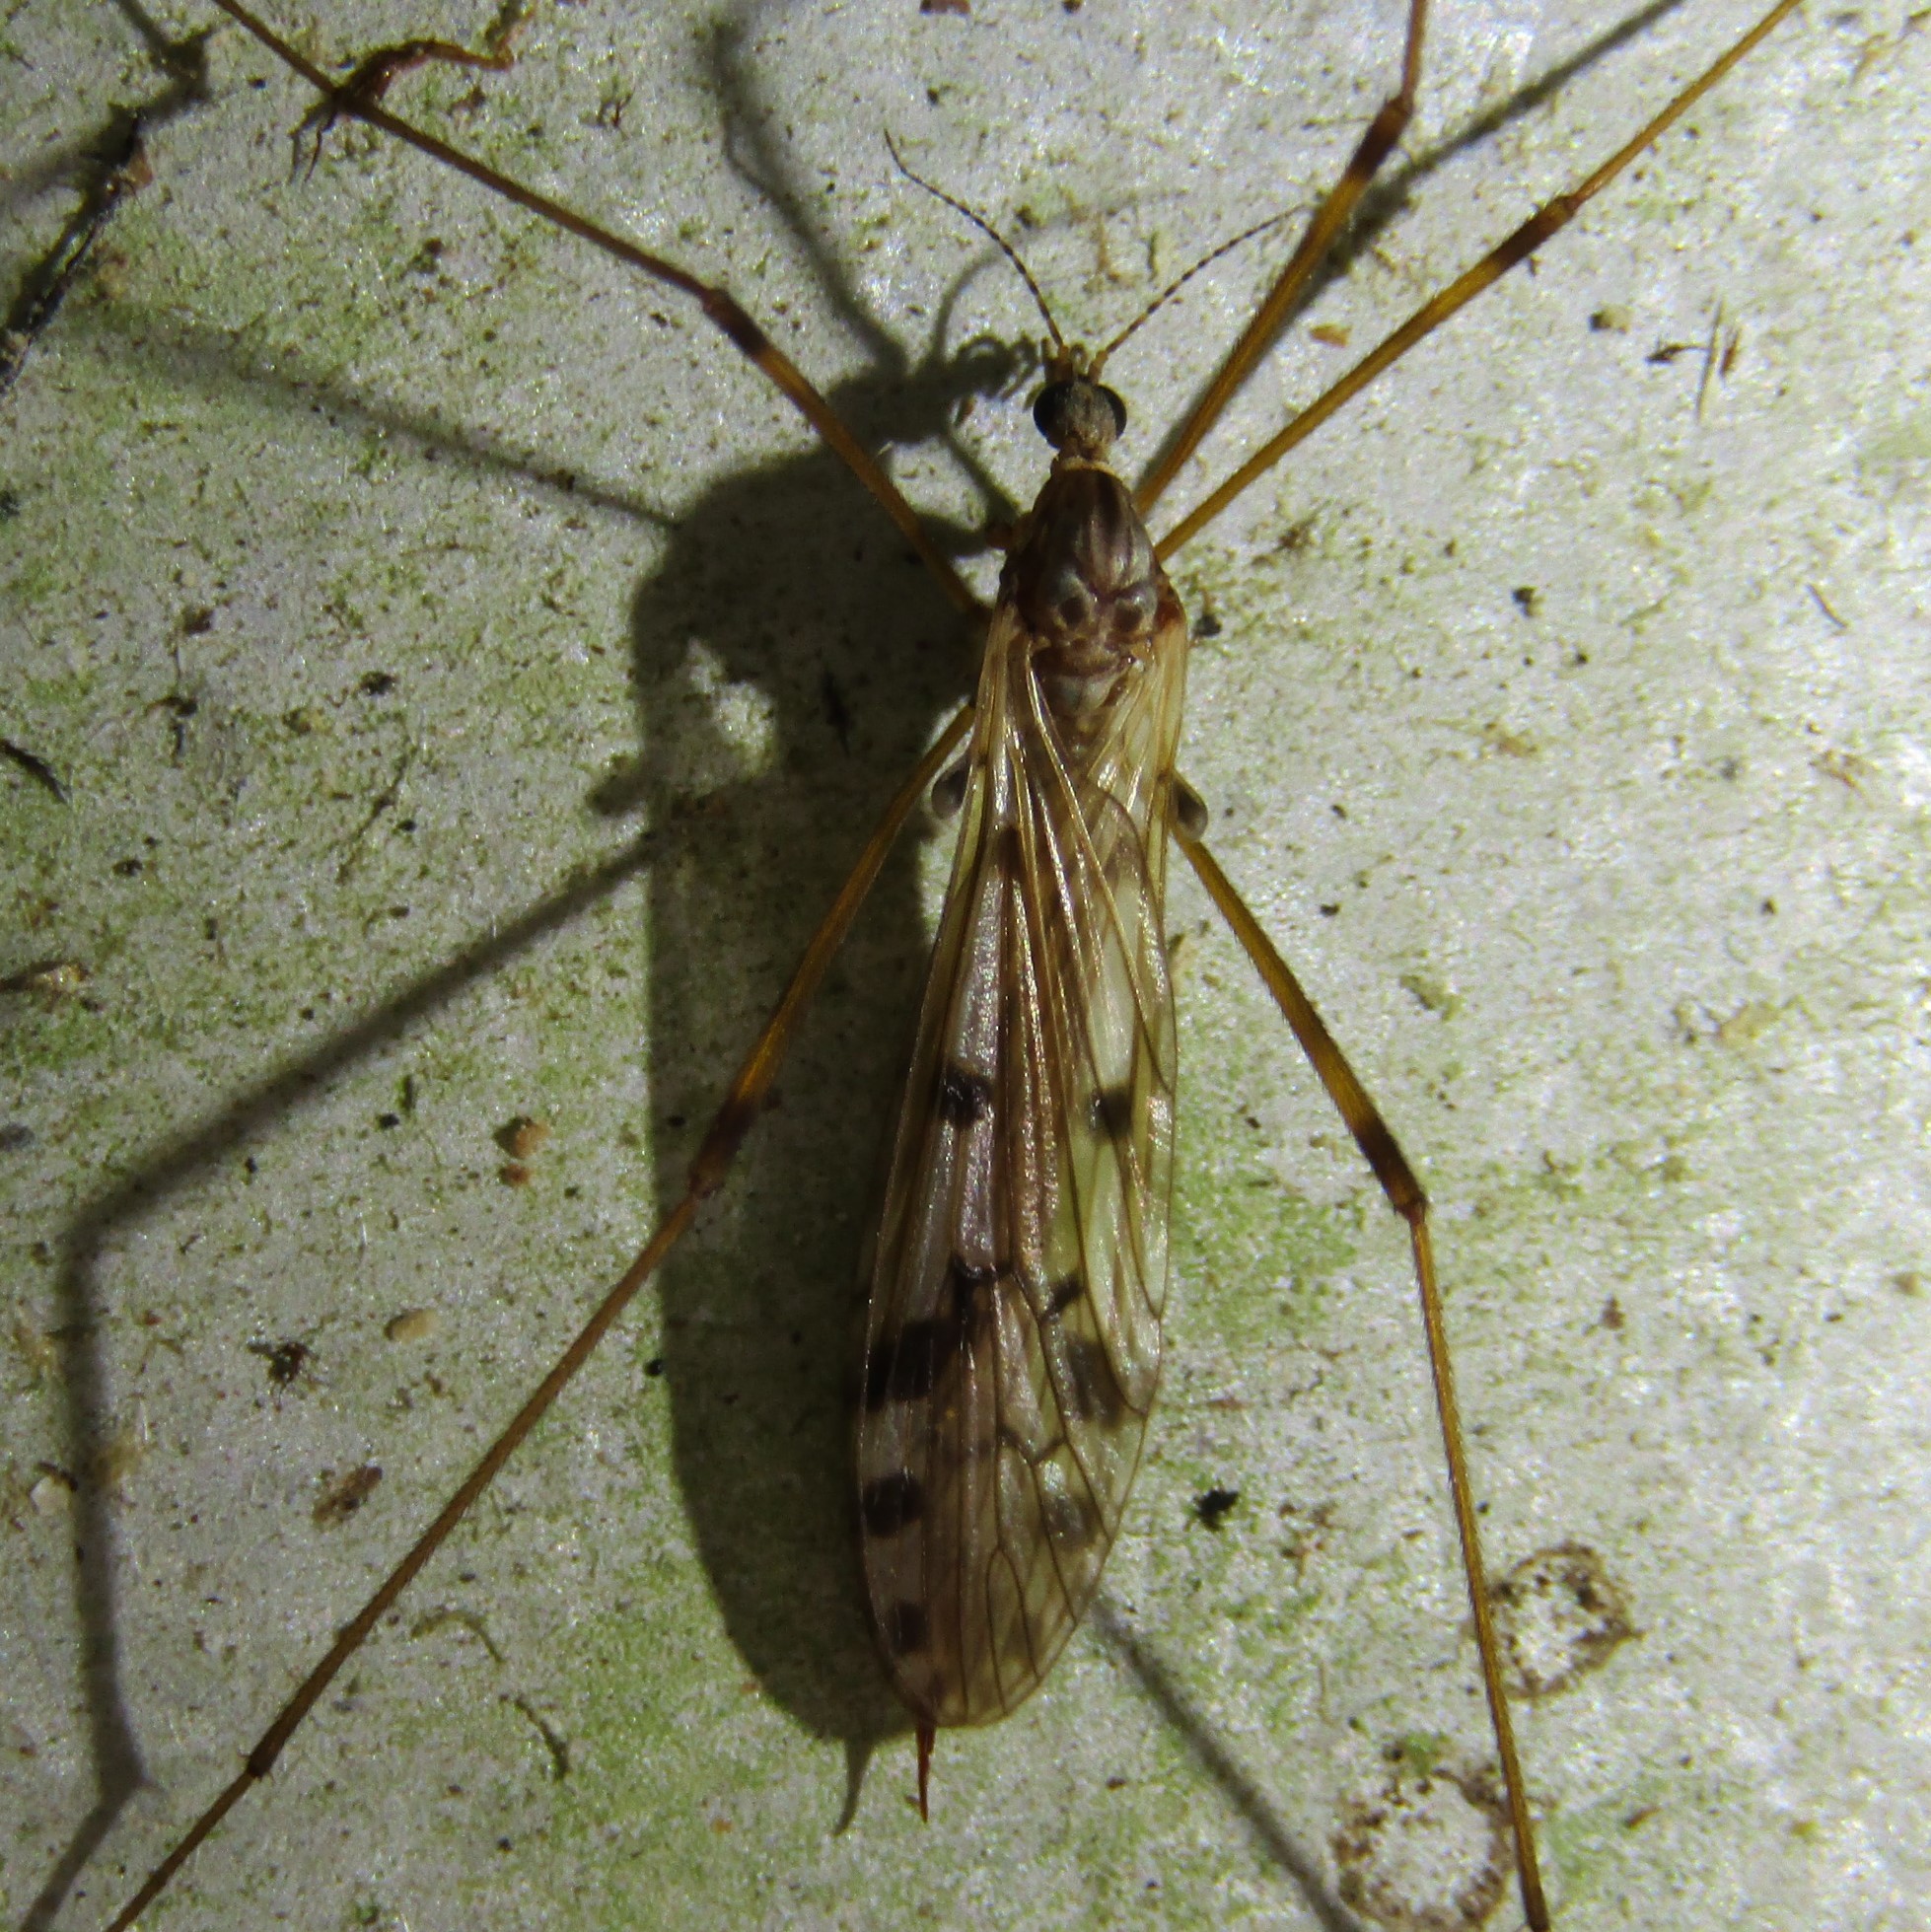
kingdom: Animalia
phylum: Arthropoda
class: Insecta
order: Diptera
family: Limoniidae
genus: Austrolimnophila
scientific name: Austrolimnophila atripes
